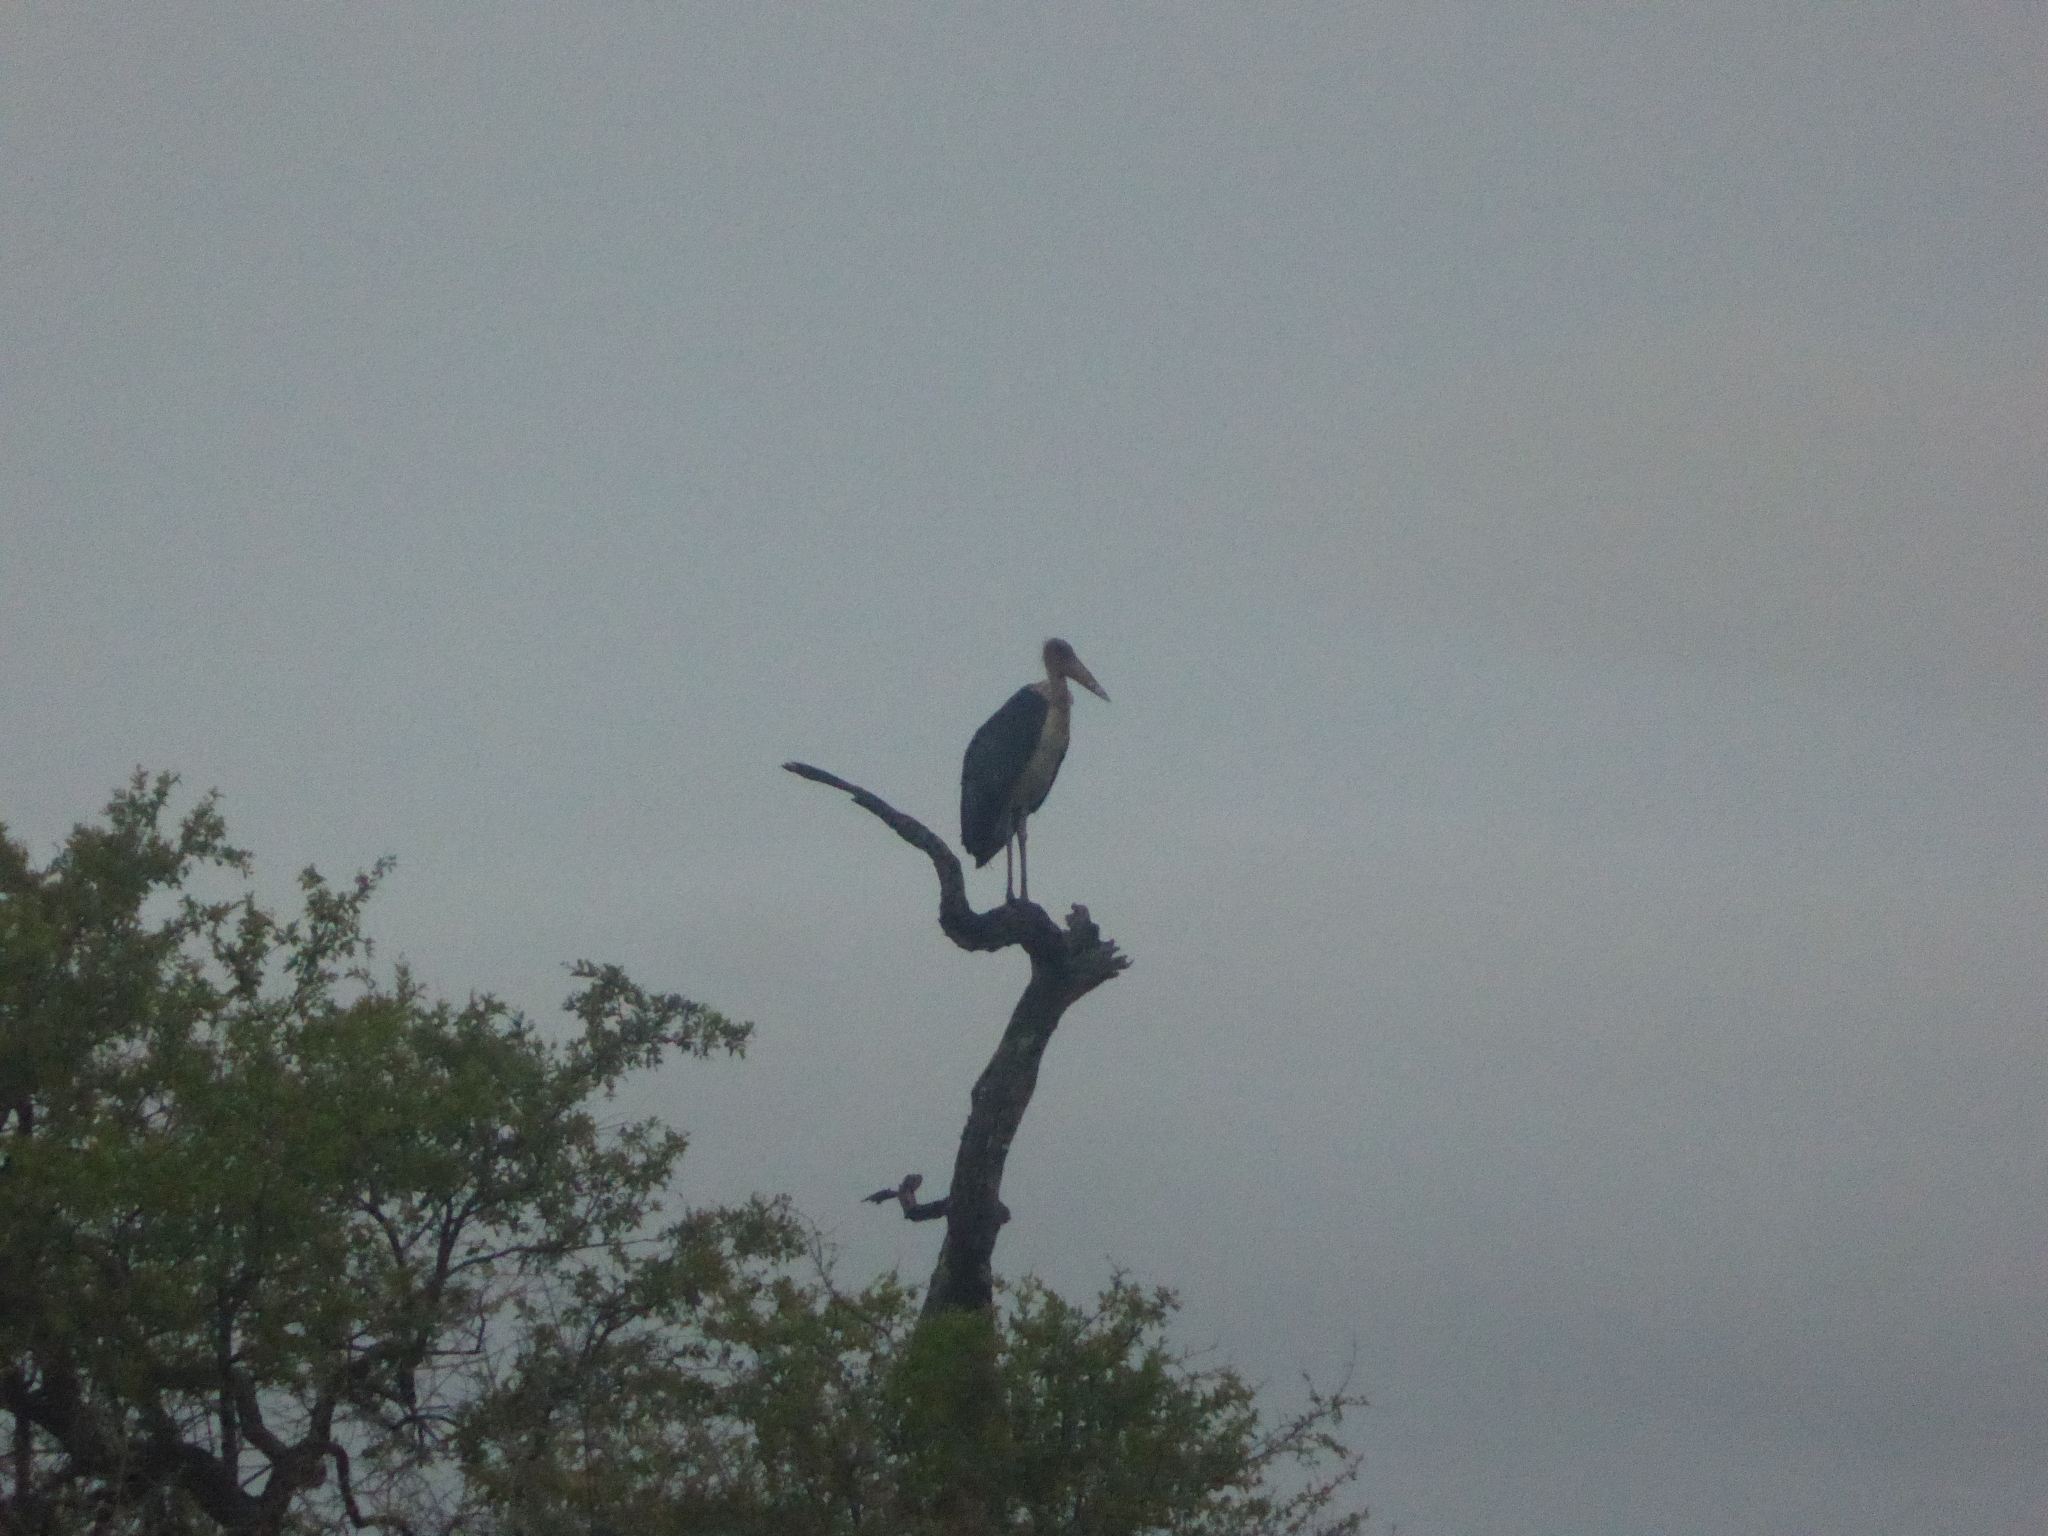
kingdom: Animalia
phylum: Chordata
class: Aves
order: Ciconiiformes
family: Ciconiidae
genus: Leptoptilos
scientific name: Leptoptilos crumenifer
